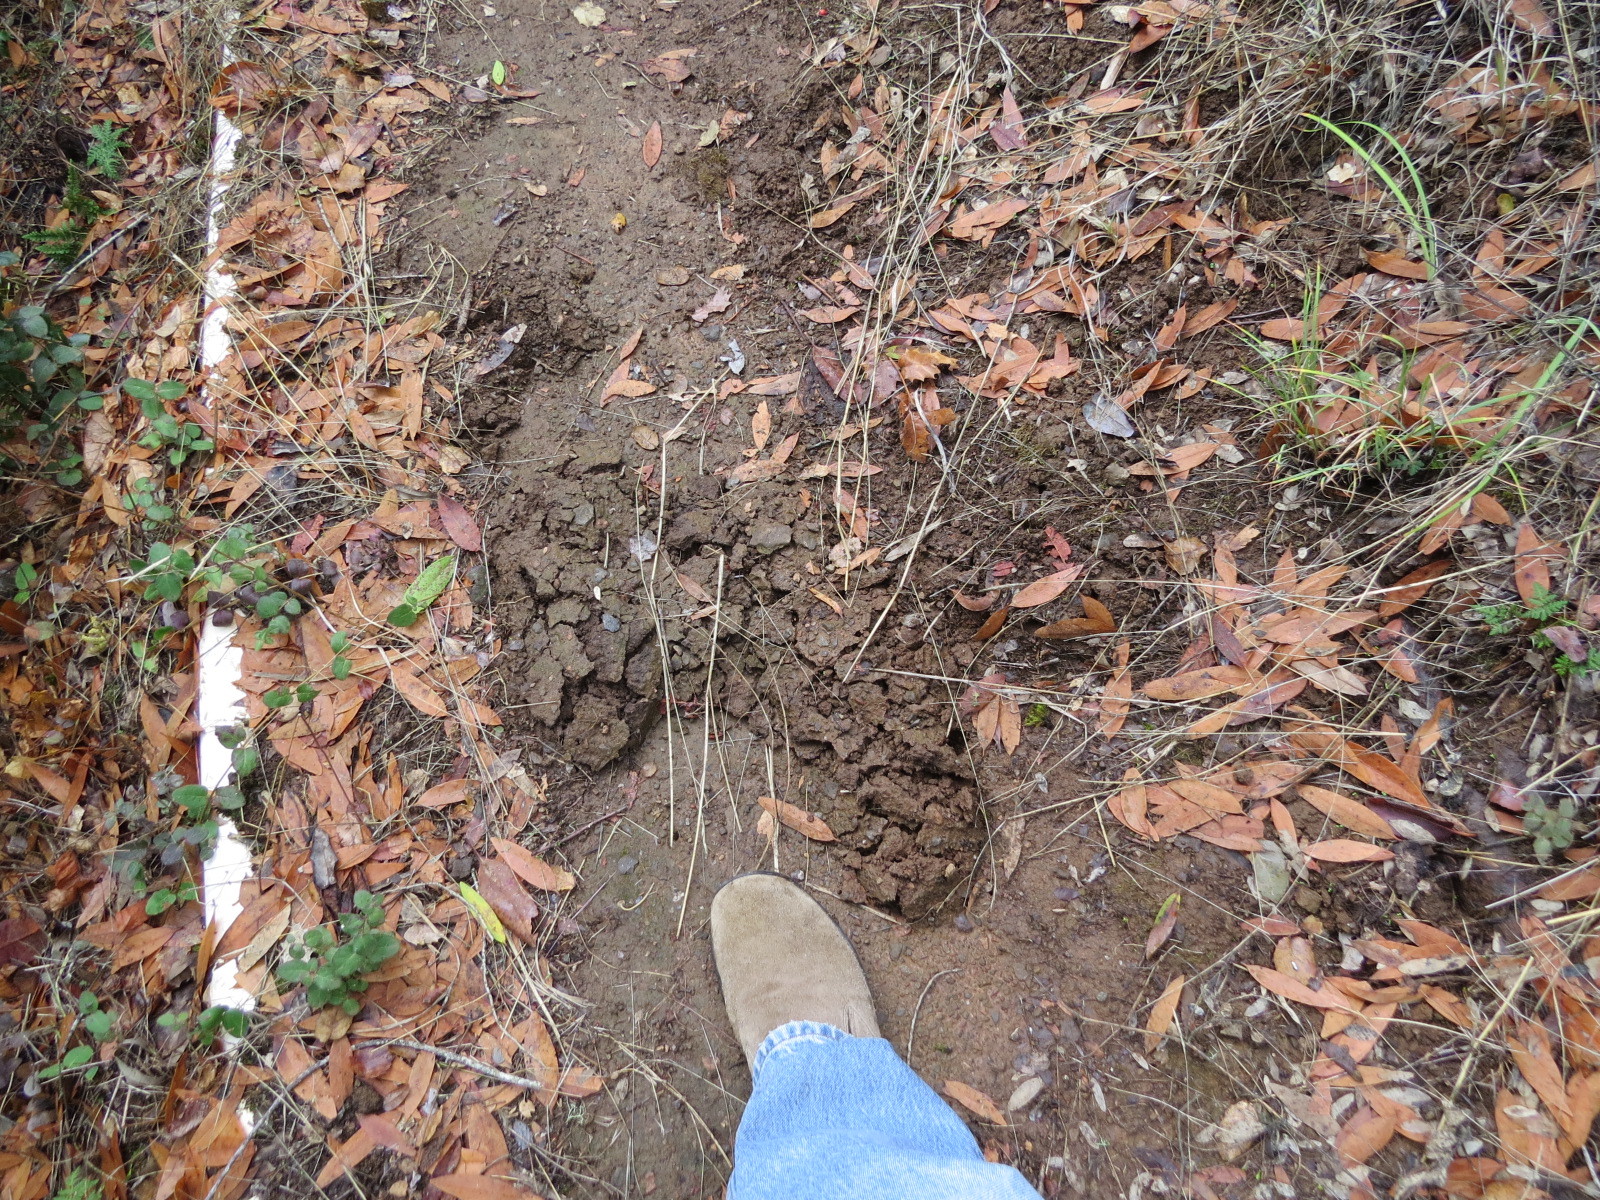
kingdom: Animalia
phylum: Chordata
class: Mammalia
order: Soricomorpha
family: Talpidae
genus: Scapanus
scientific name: Scapanus latimanus
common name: Broad-footed mole
